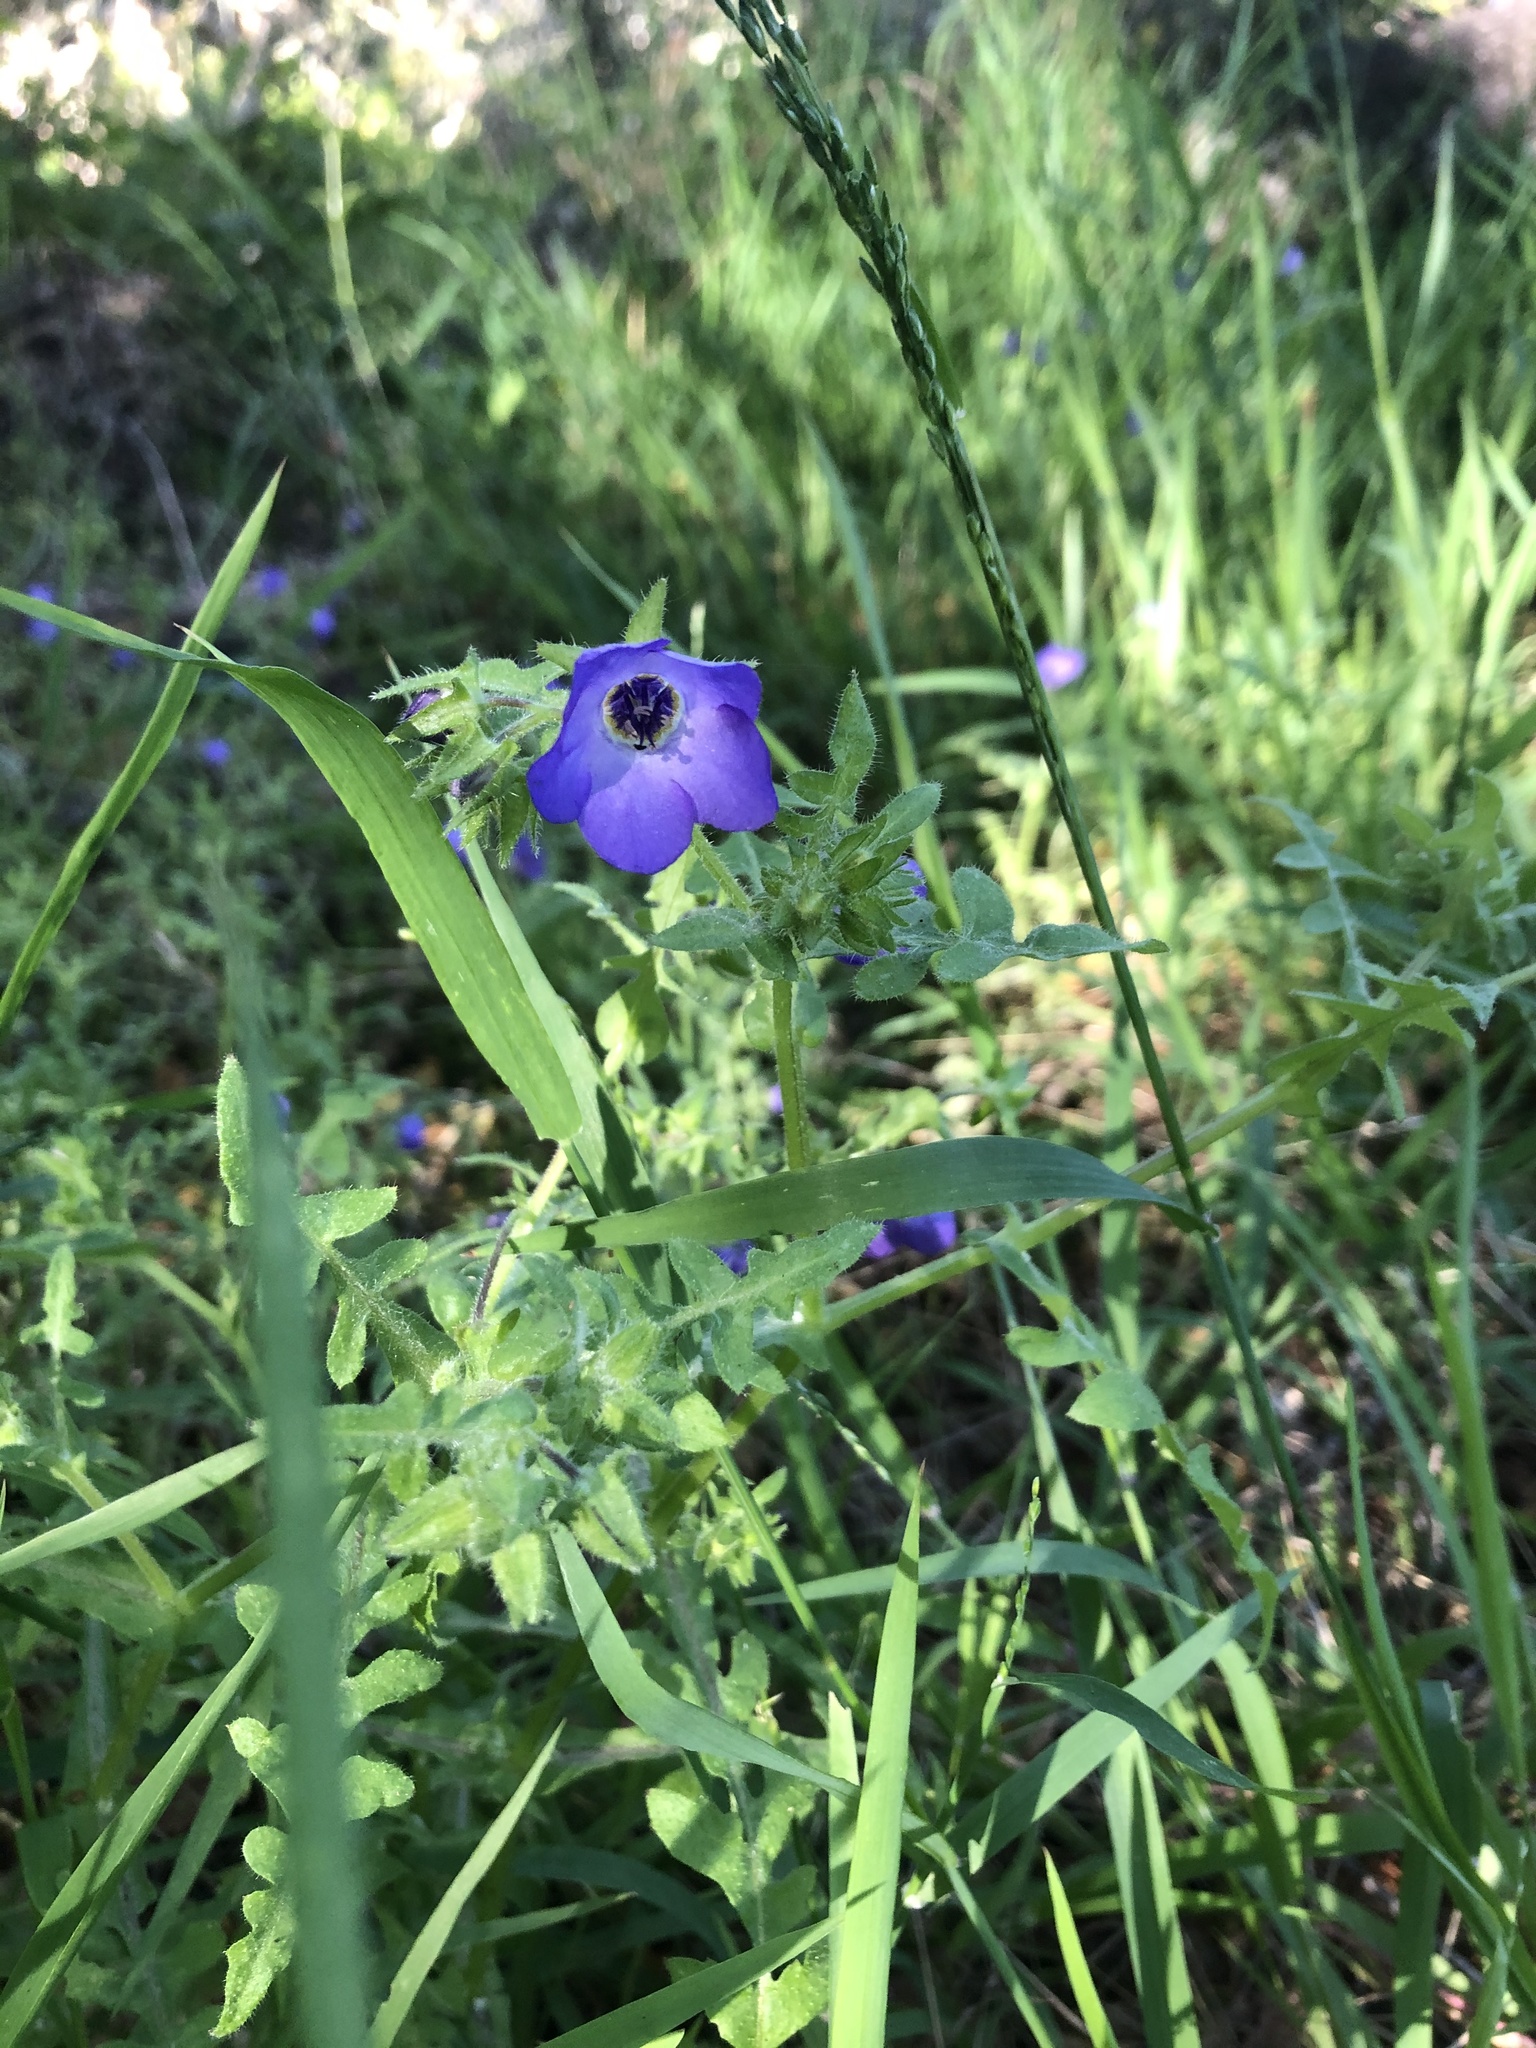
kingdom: Plantae
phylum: Tracheophyta
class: Magnoliopsida
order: Boraginales
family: Hydrophyllaceae
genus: Pholistoma
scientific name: Pholistoma auritum
